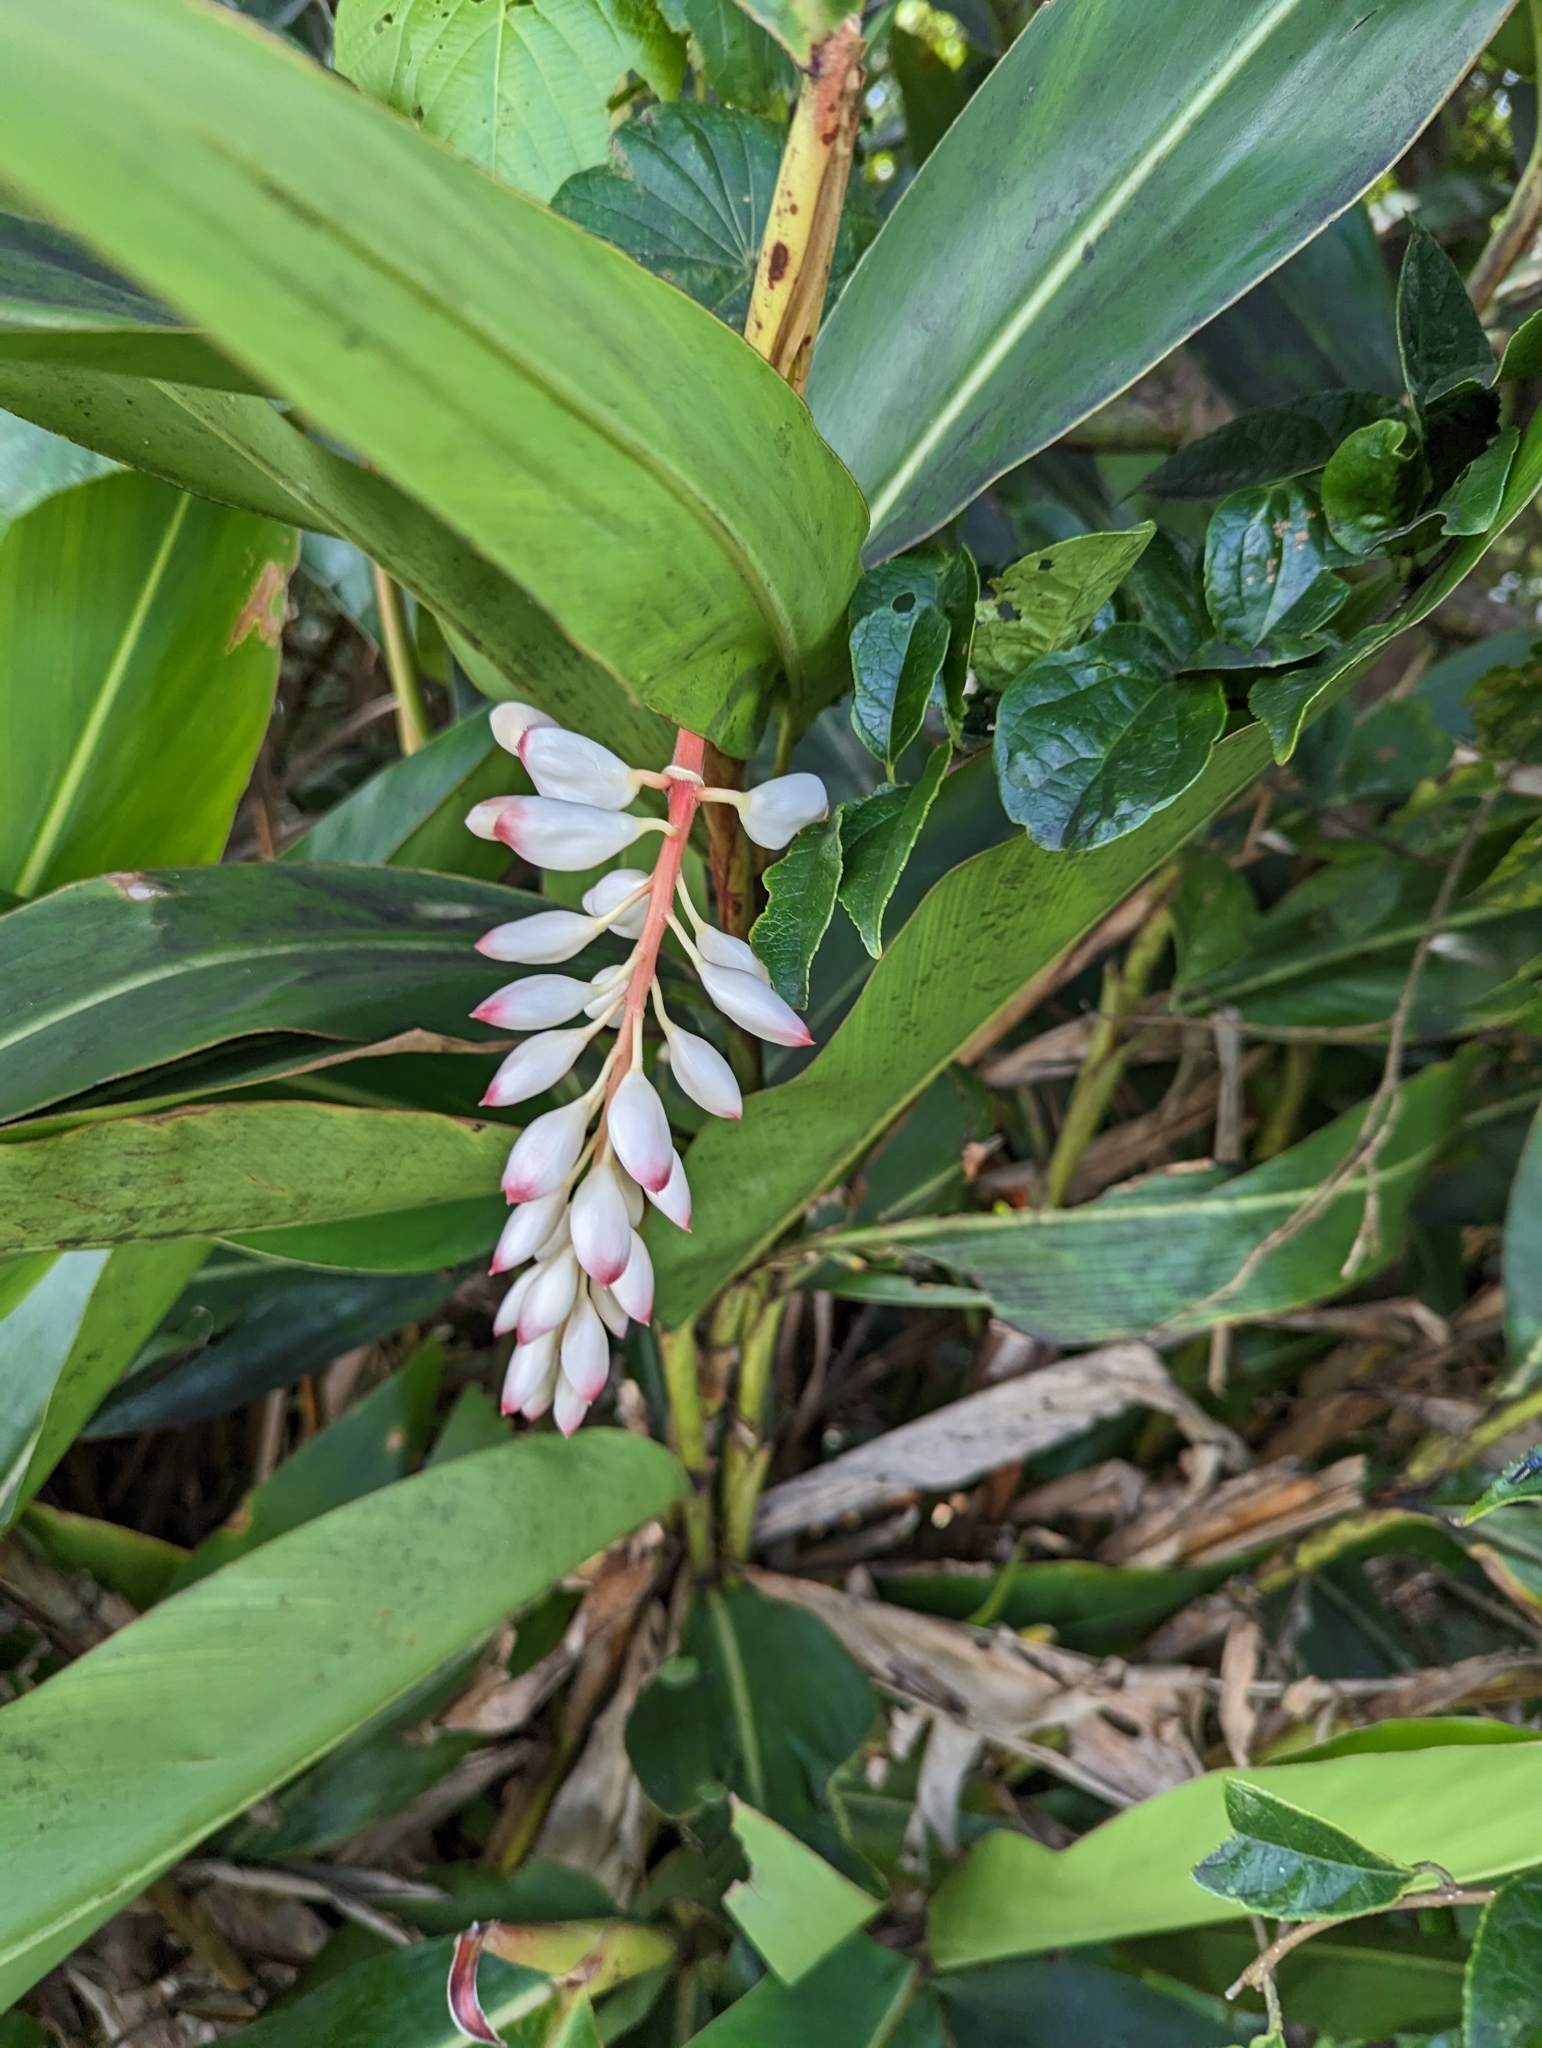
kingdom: Plantae
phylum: Tracheophyta
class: Liliopsida
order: Zingiberales
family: Zingiberaceae
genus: Alpinia
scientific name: Alpinia zerumbet
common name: Shellplant
